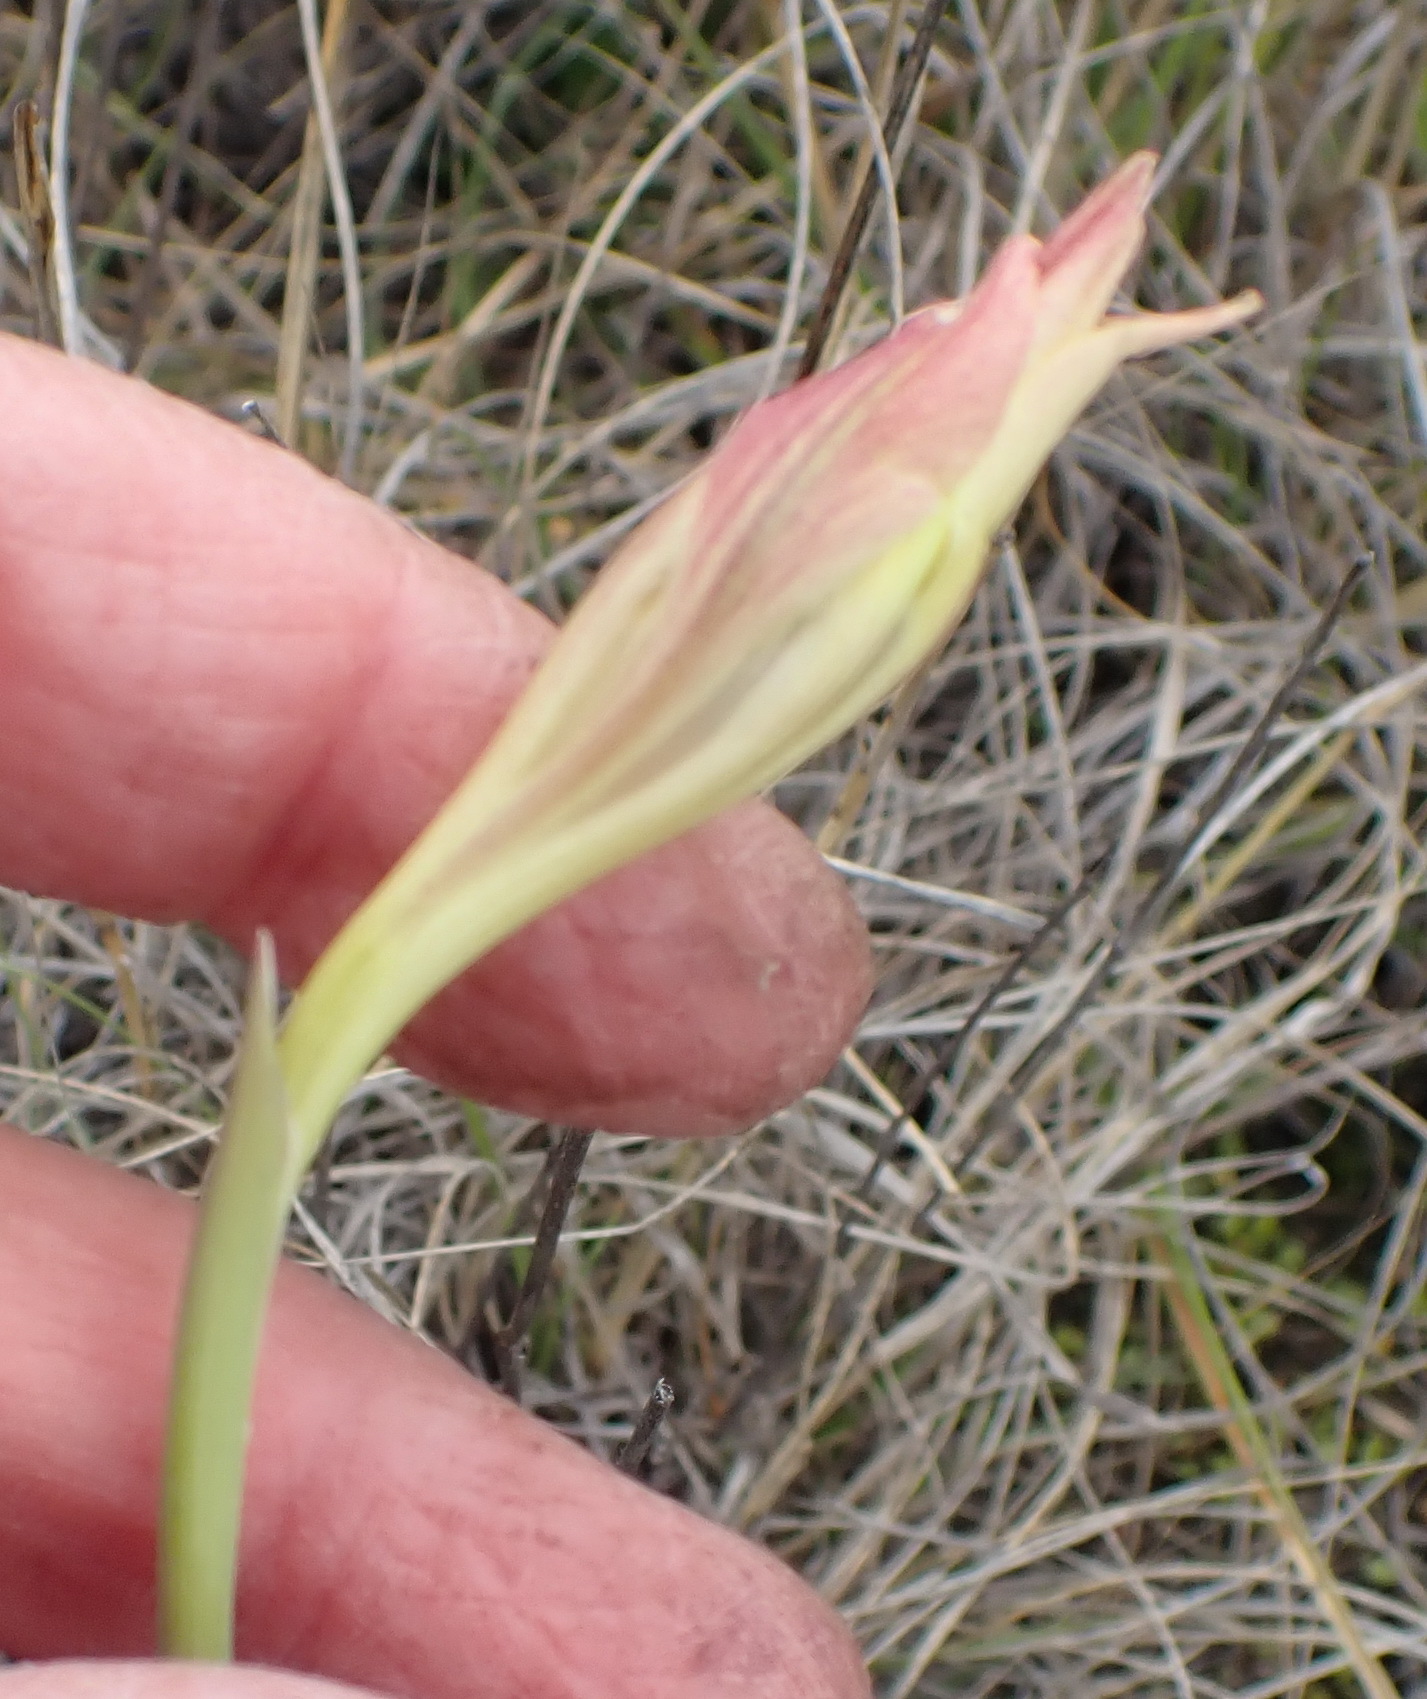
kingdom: Plantae
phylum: Tracheophyta
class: Liliopsida
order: Asparagales
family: Iridaceae
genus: Gladiolus
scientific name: Gladiolus tristis
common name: Ever-flowering gladiolus
